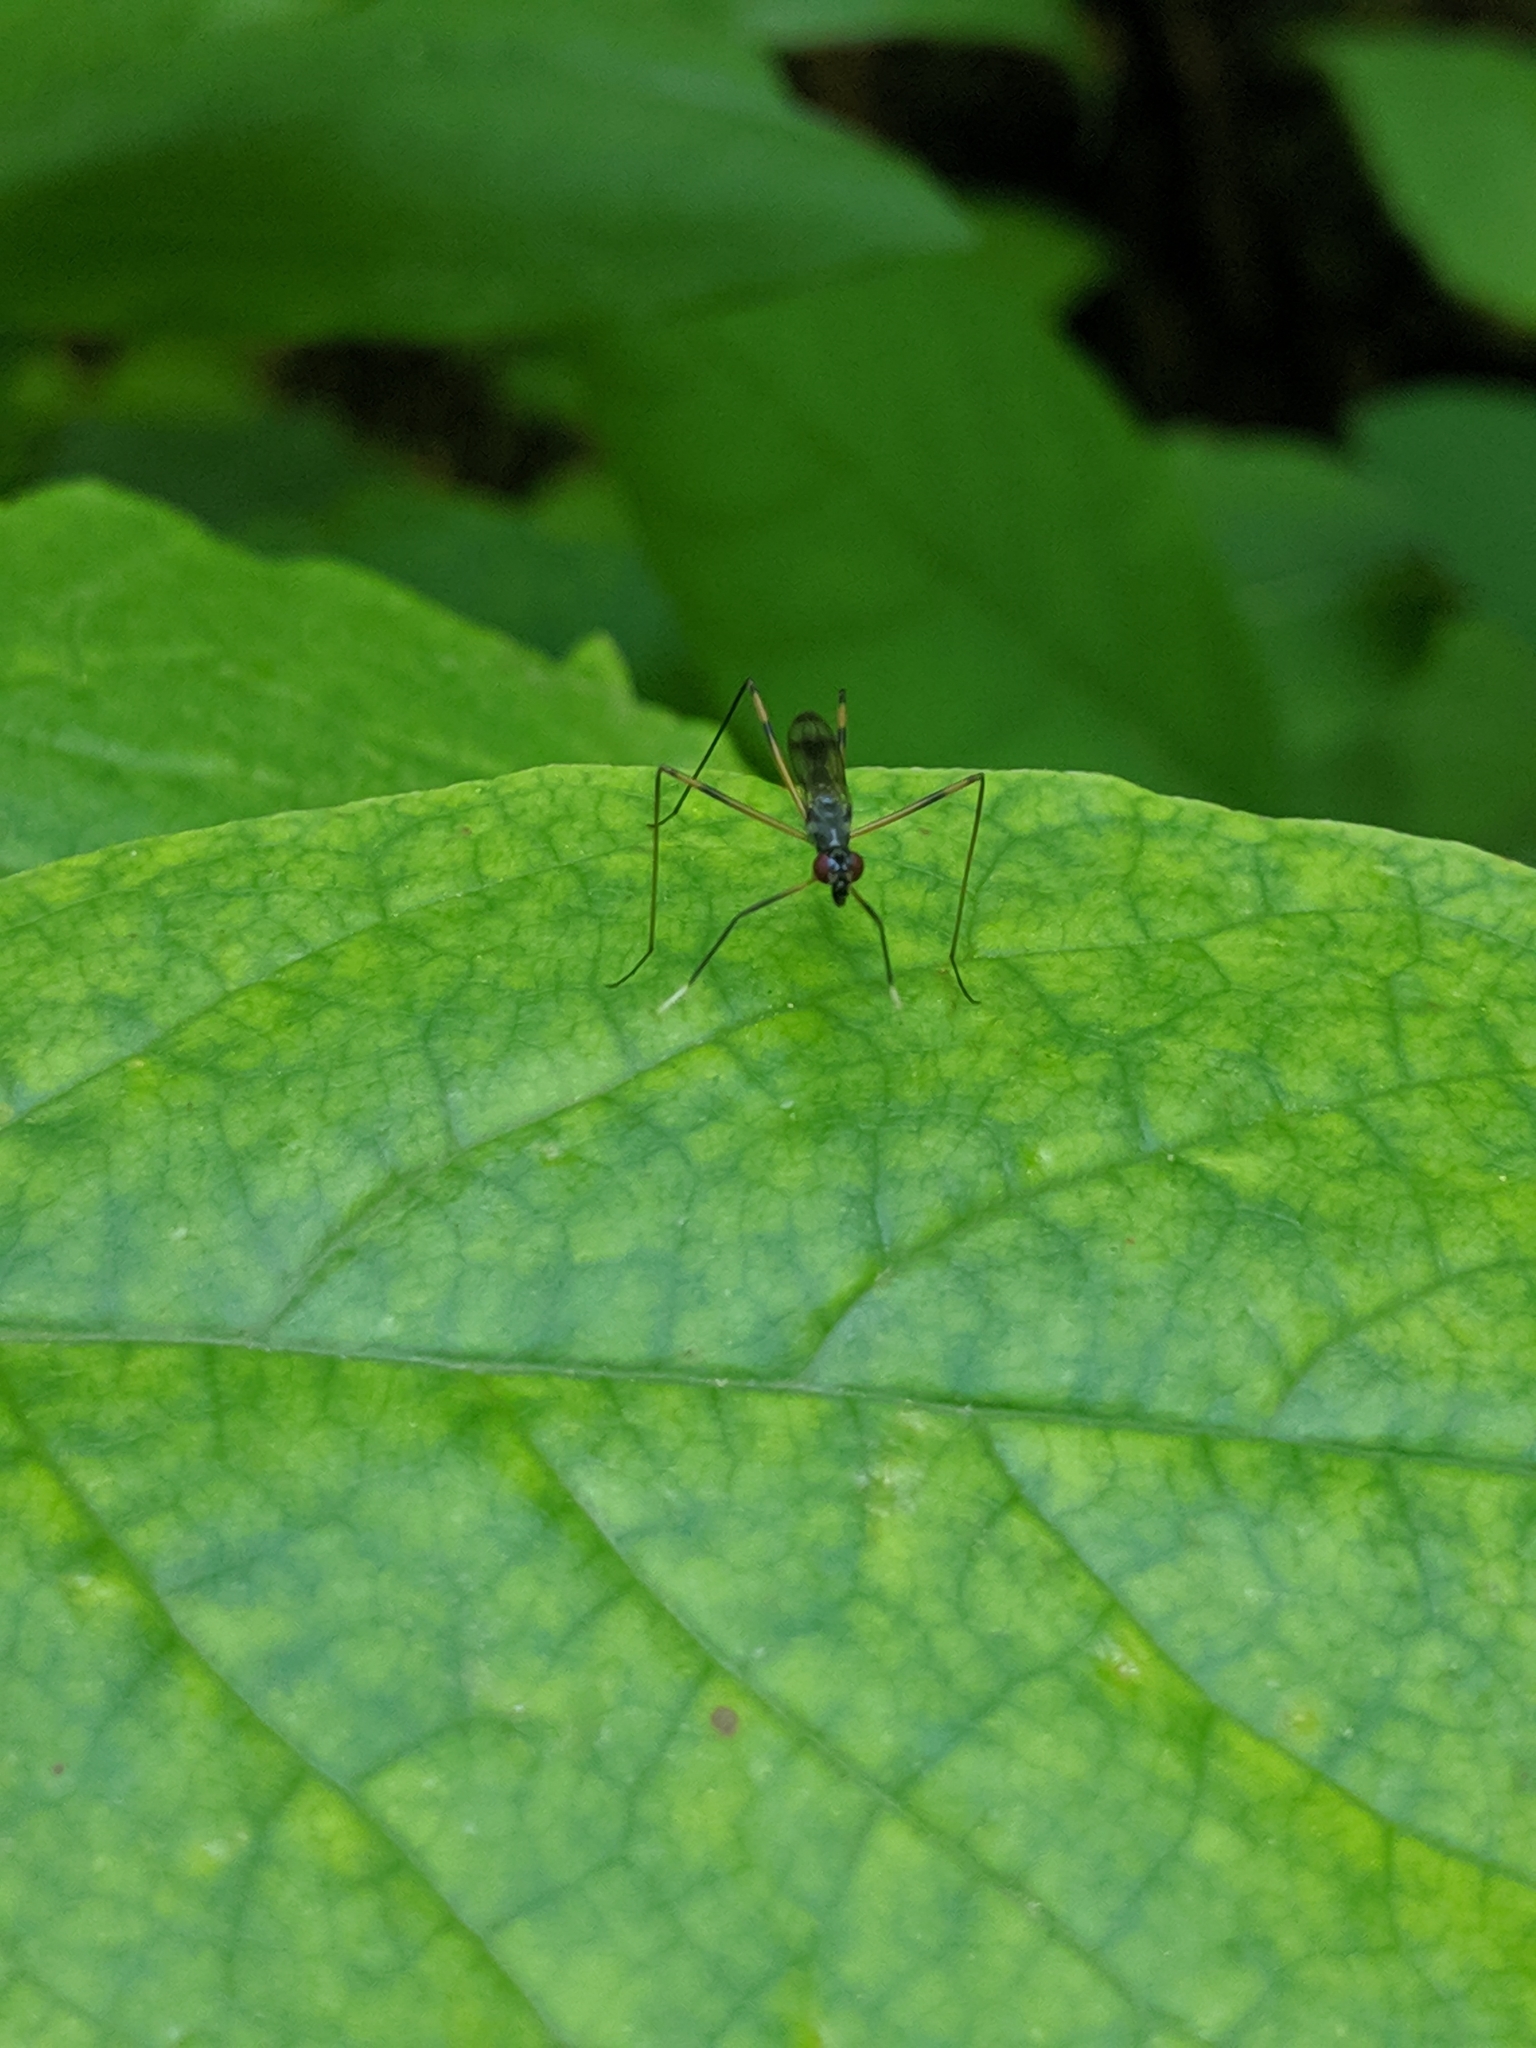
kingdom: Animalia
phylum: Arthropoda
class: Insecta
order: Diptera
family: Micropezidae
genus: Rainieria
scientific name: Rainieria antennaepes
